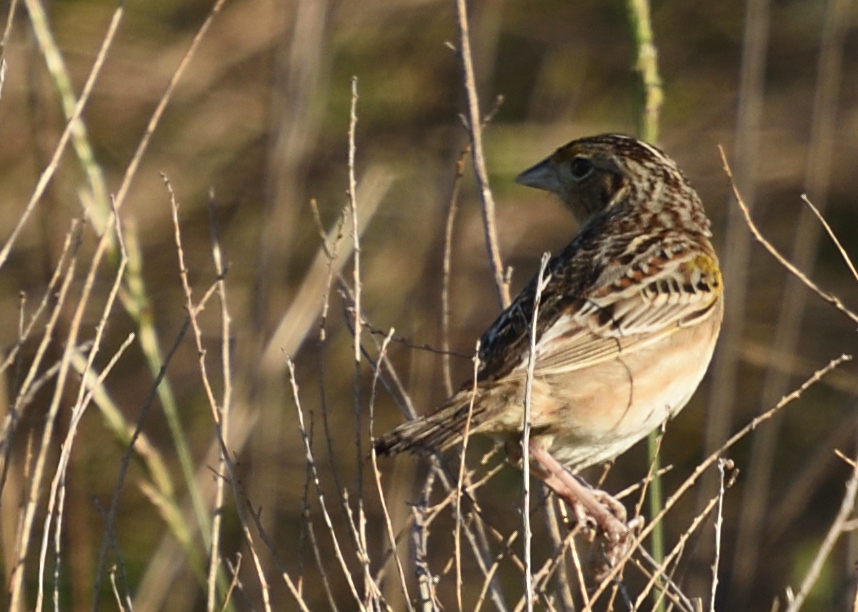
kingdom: Animalia
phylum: Chordata
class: Aves
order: Passeriformes
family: Passerellidae
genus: Ammodramus
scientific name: Ammodramus savannarum
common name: Grasshopper sparrow
